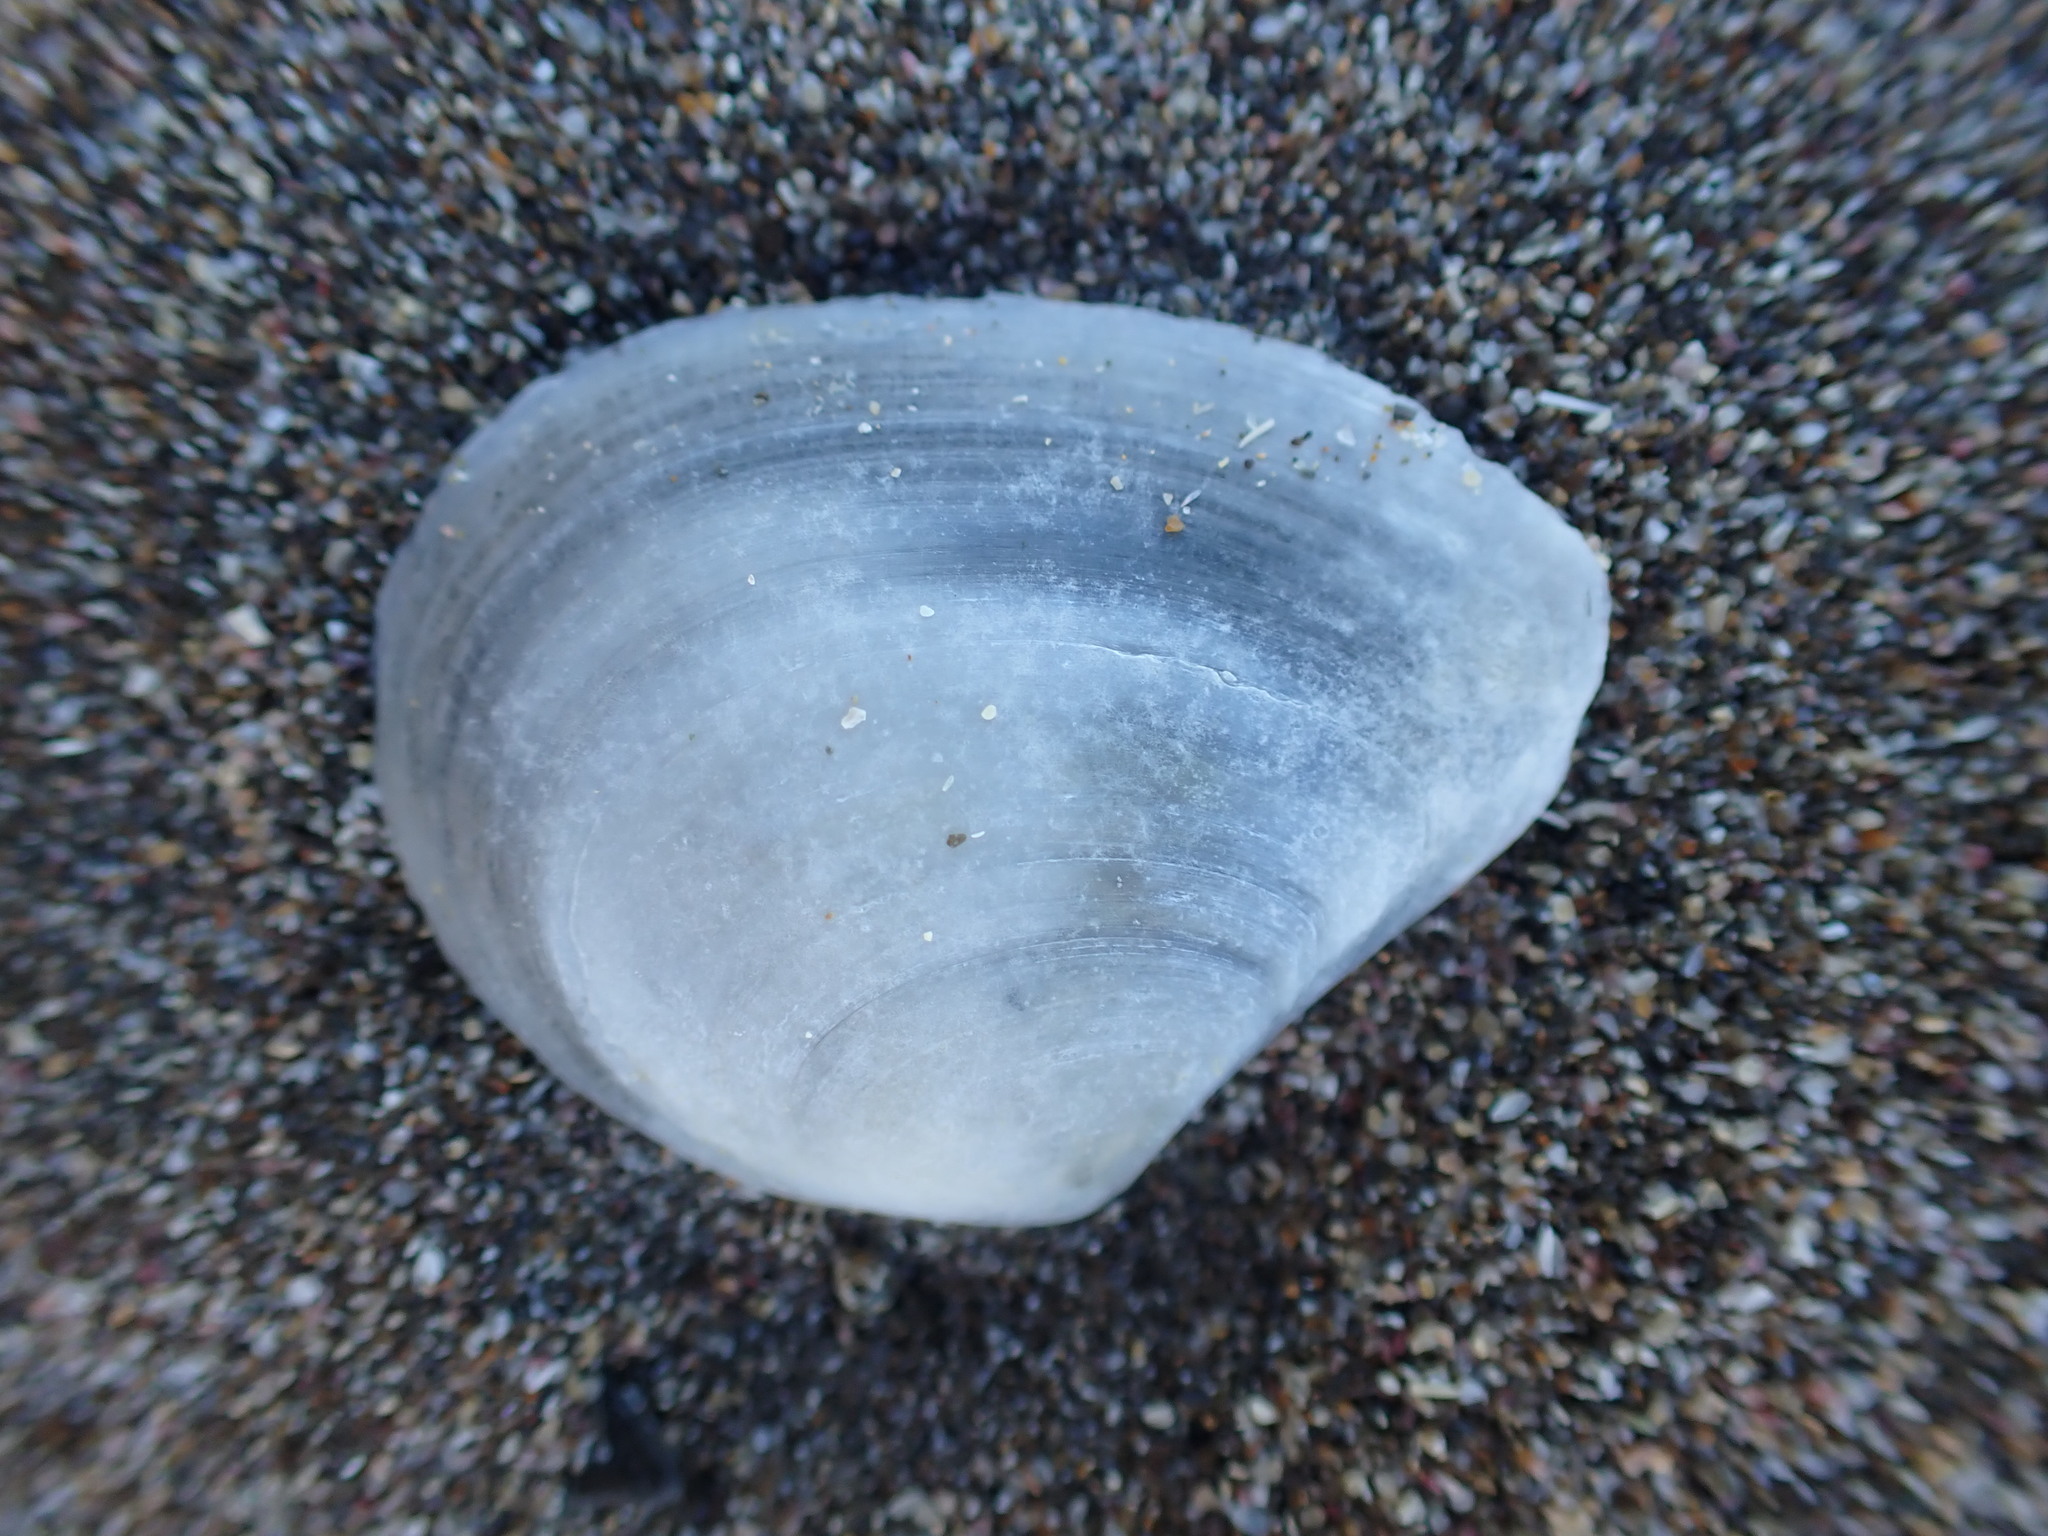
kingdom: Animalia
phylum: Mollusca
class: Bivalvia
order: Cardiida
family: Tellinidae
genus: Macomona
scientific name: Macomona liliana
